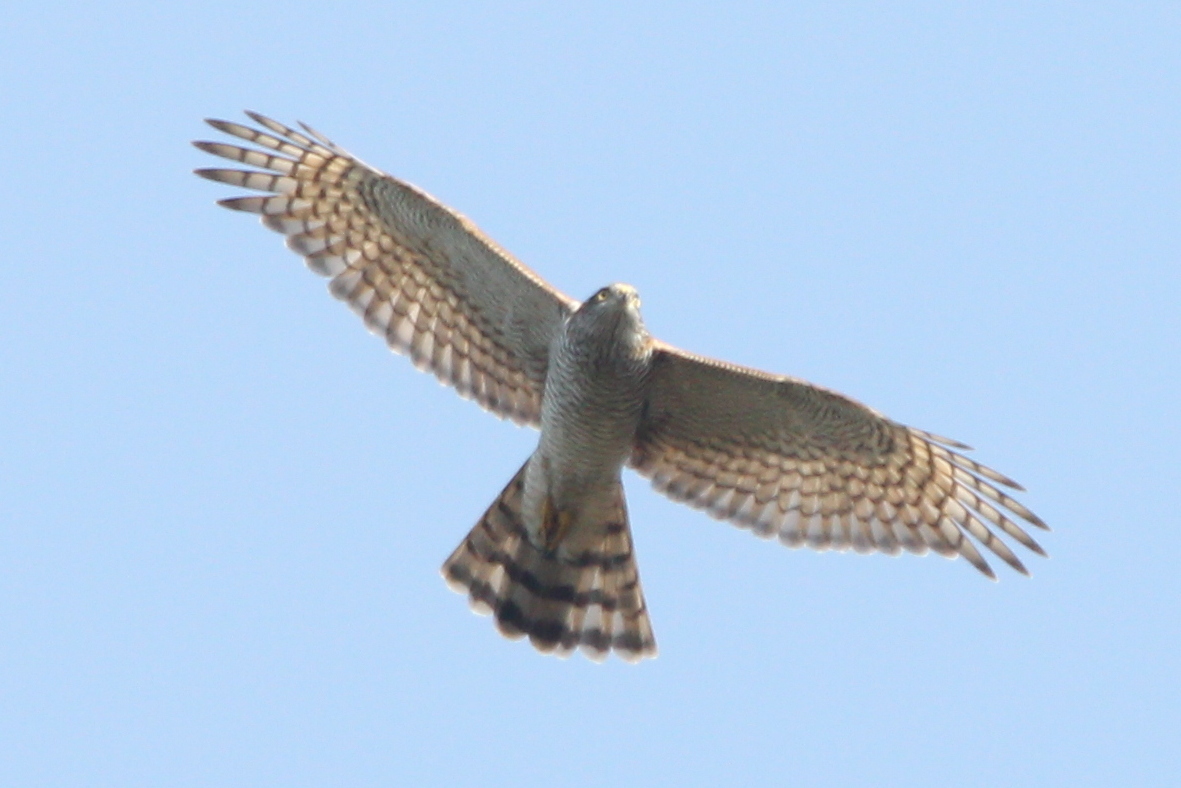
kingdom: Animalia
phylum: Chordata
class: Aves
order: Accipitriformes
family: Accipitridae
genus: Accipiter
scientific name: Accipiter nisus
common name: Eurasian sparrowhawk
